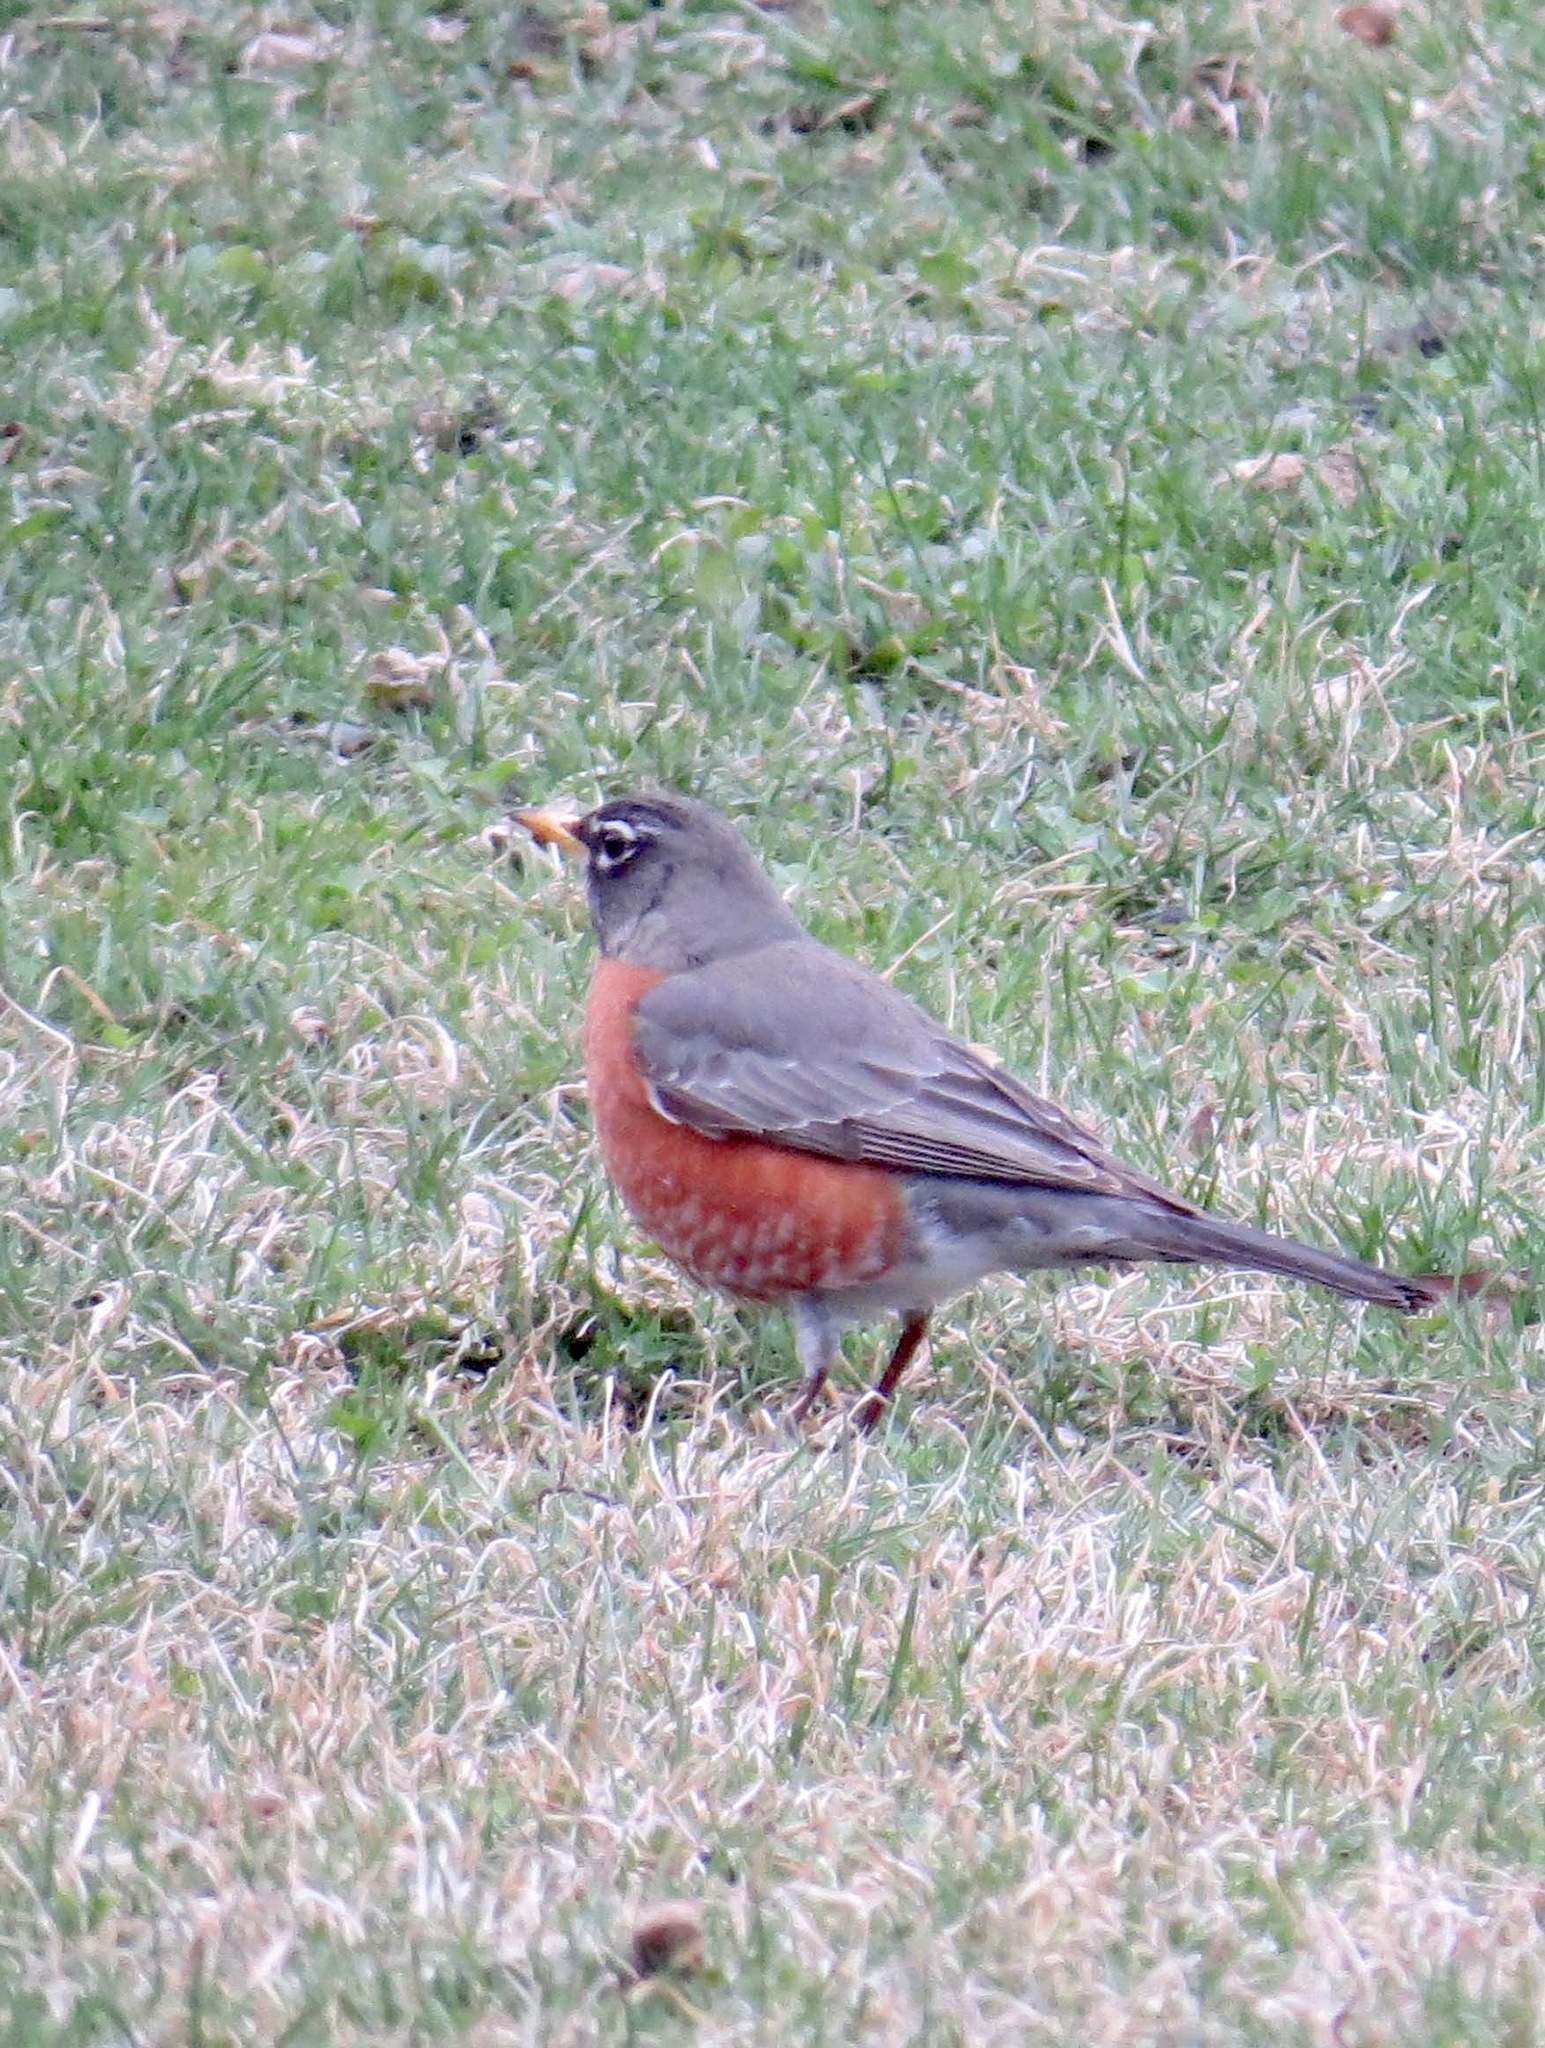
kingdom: Animalia
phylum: Chordata
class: Aves
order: Passeriformes
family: Turdidae
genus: Turdus
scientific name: Turdus migratorius
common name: American robin
